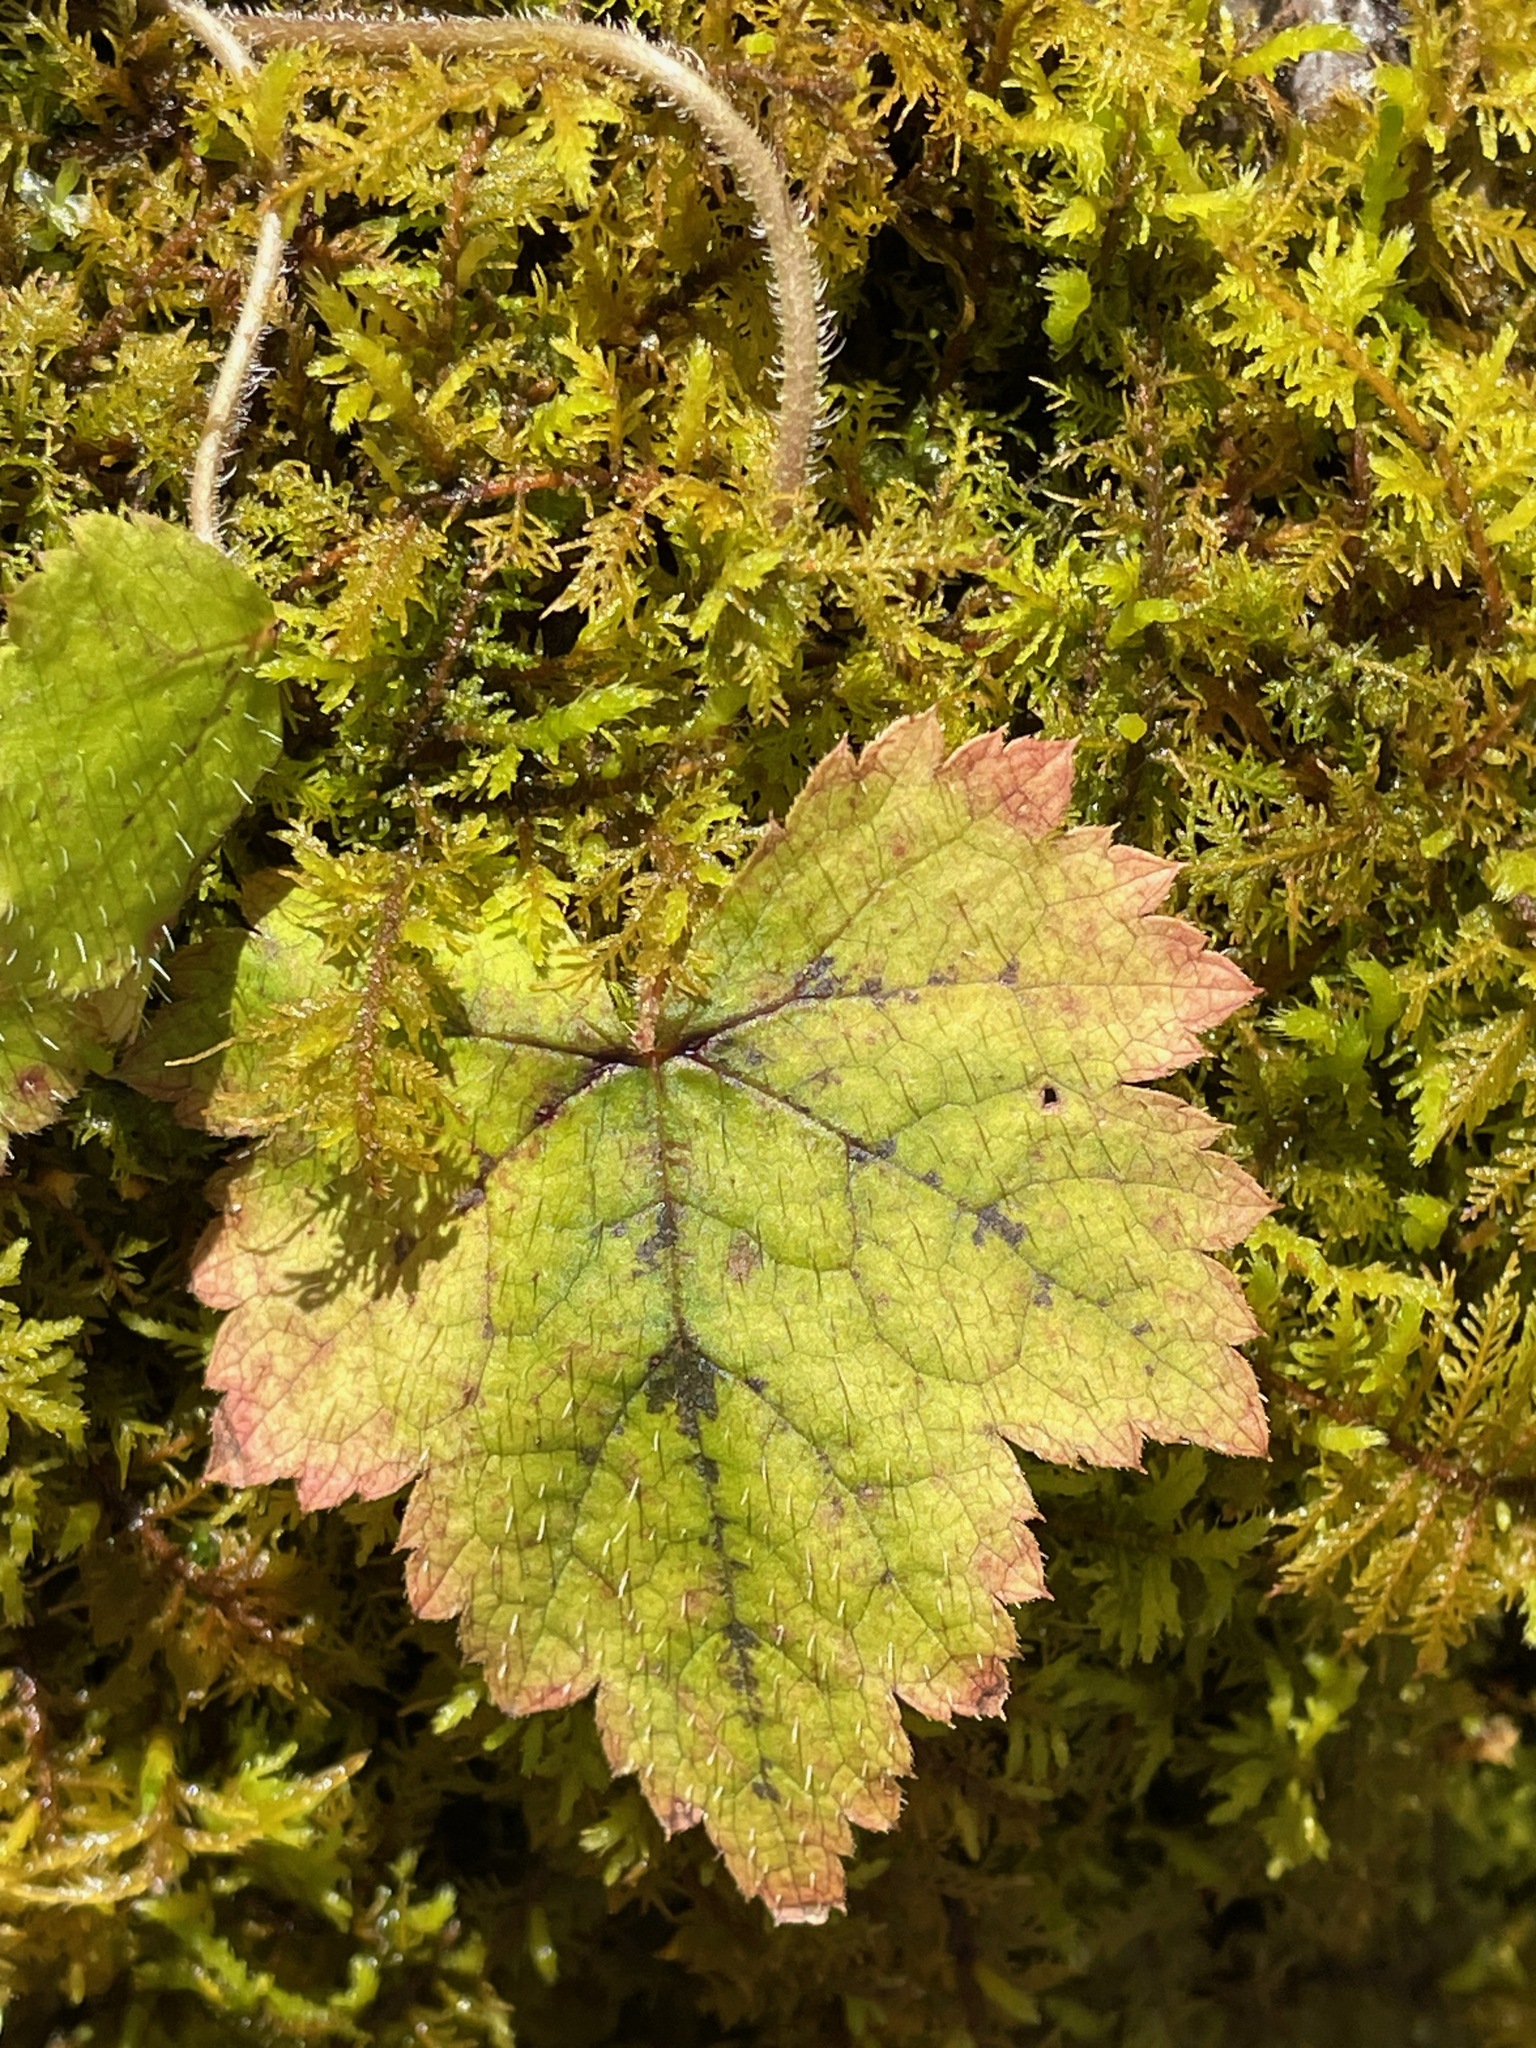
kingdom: Plantae
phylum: Tracheophyta
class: Magnoliopsida
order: Saxifragales
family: Saxifragaceae
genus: Tiarella
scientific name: Tiarella stolonifera
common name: Stoloniferous foamflower
